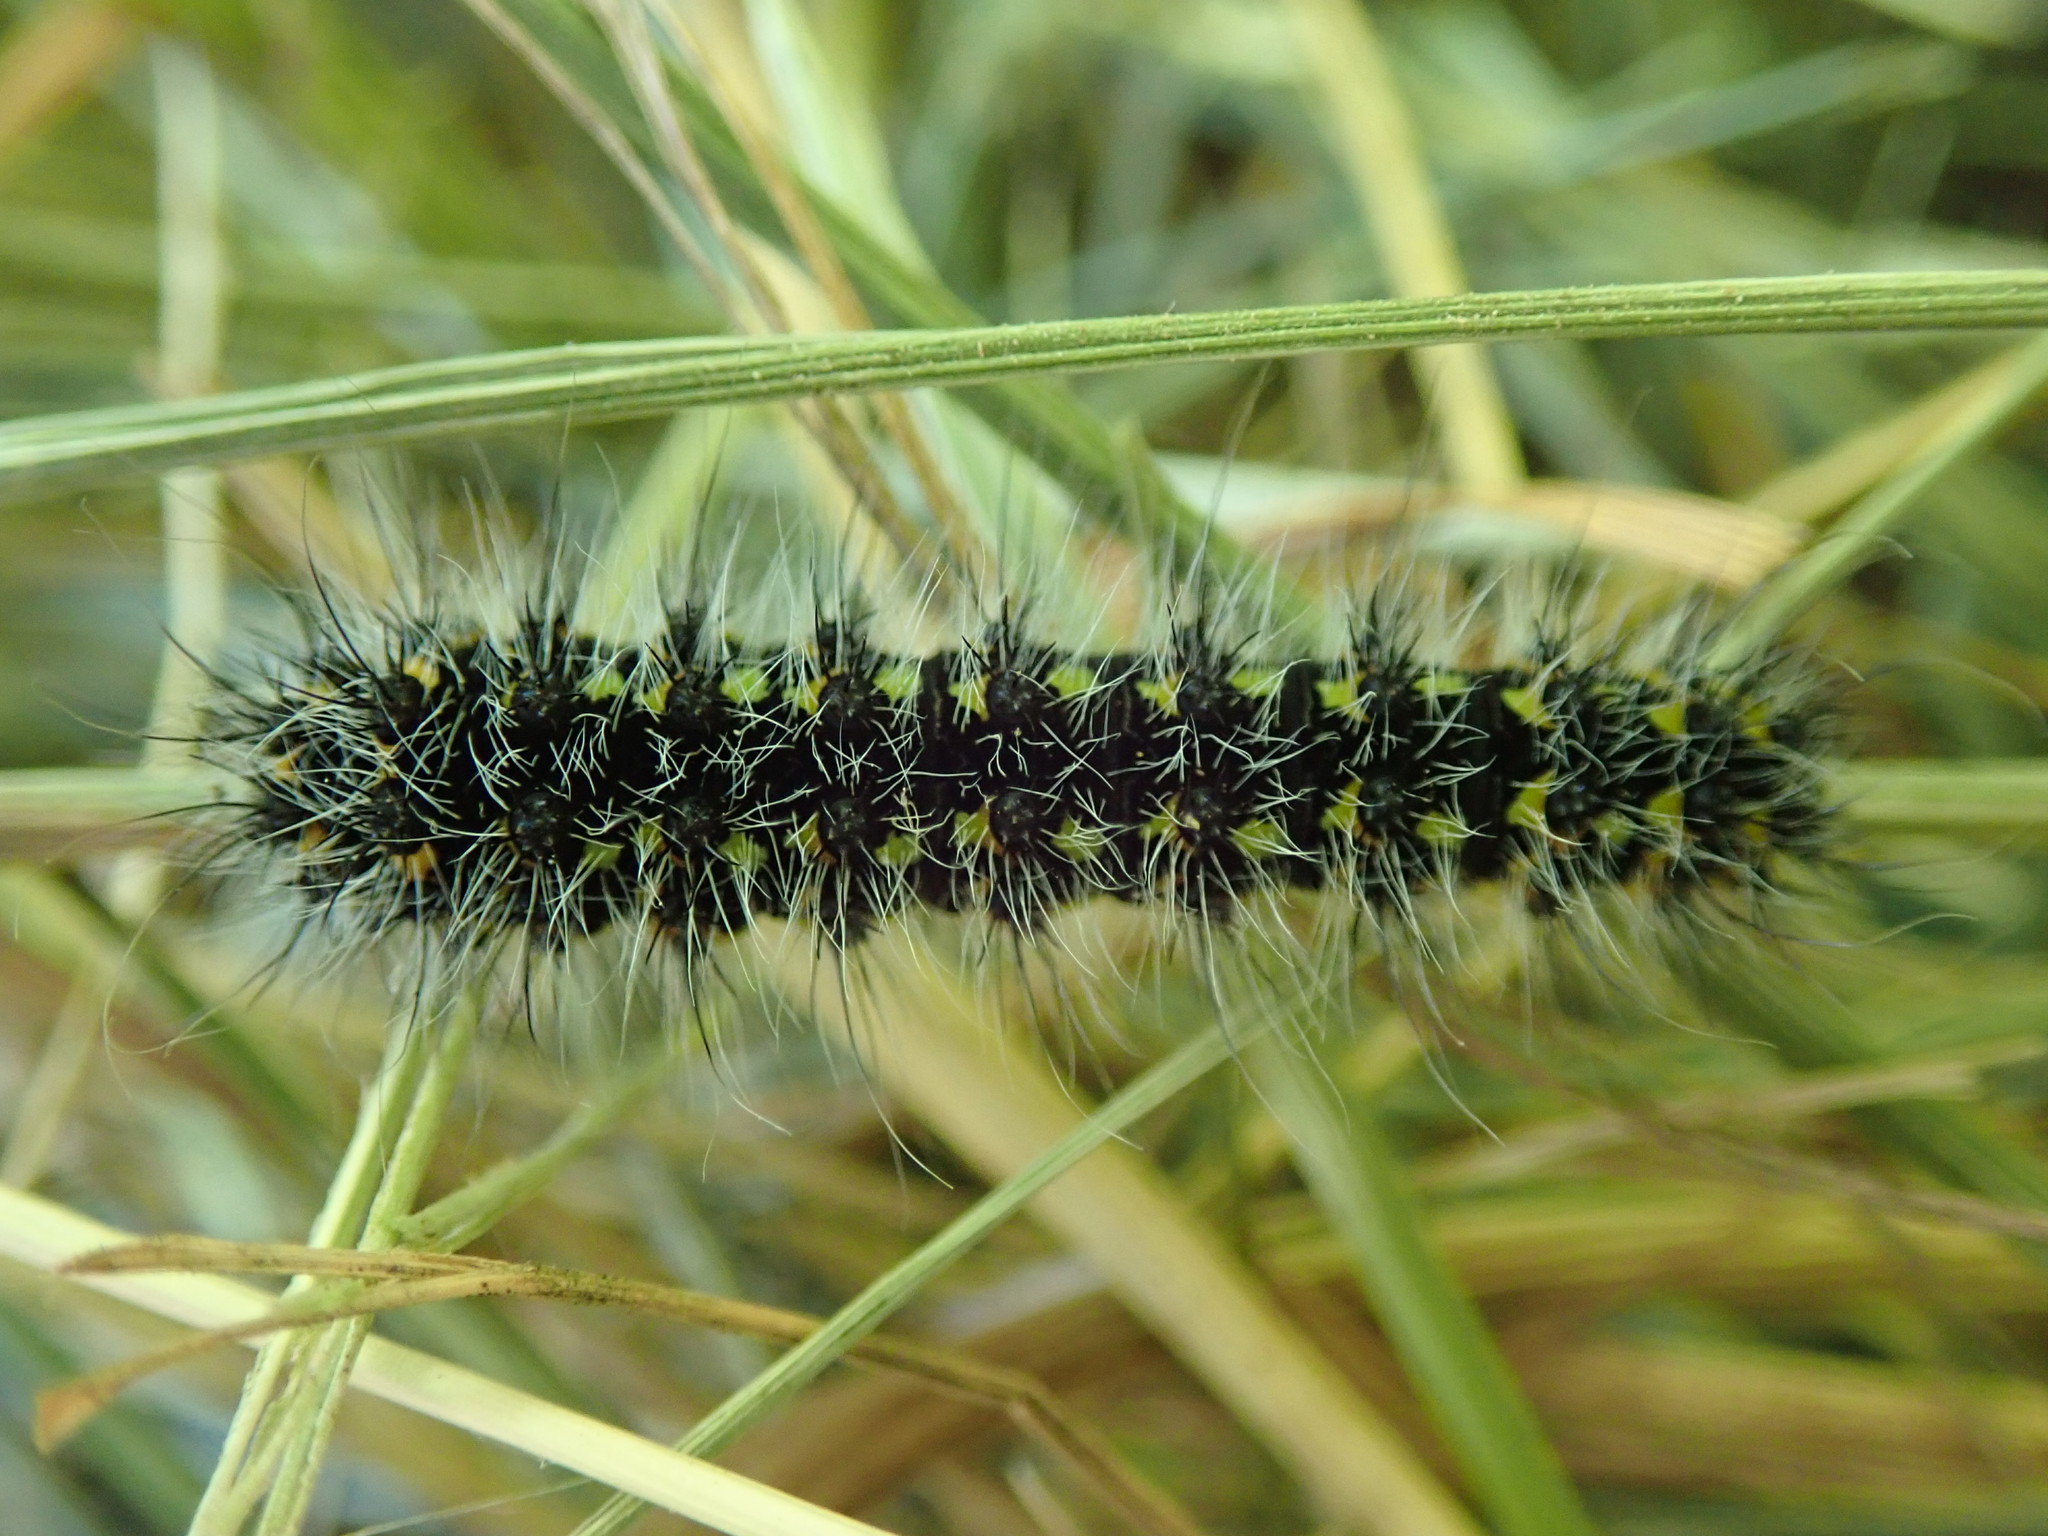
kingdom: Animalia
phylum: Arthropoda
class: Insecta
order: Lepidoptera
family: Saturniidae
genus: Saturnia
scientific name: Saturnia pavonia
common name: Emperor moth
